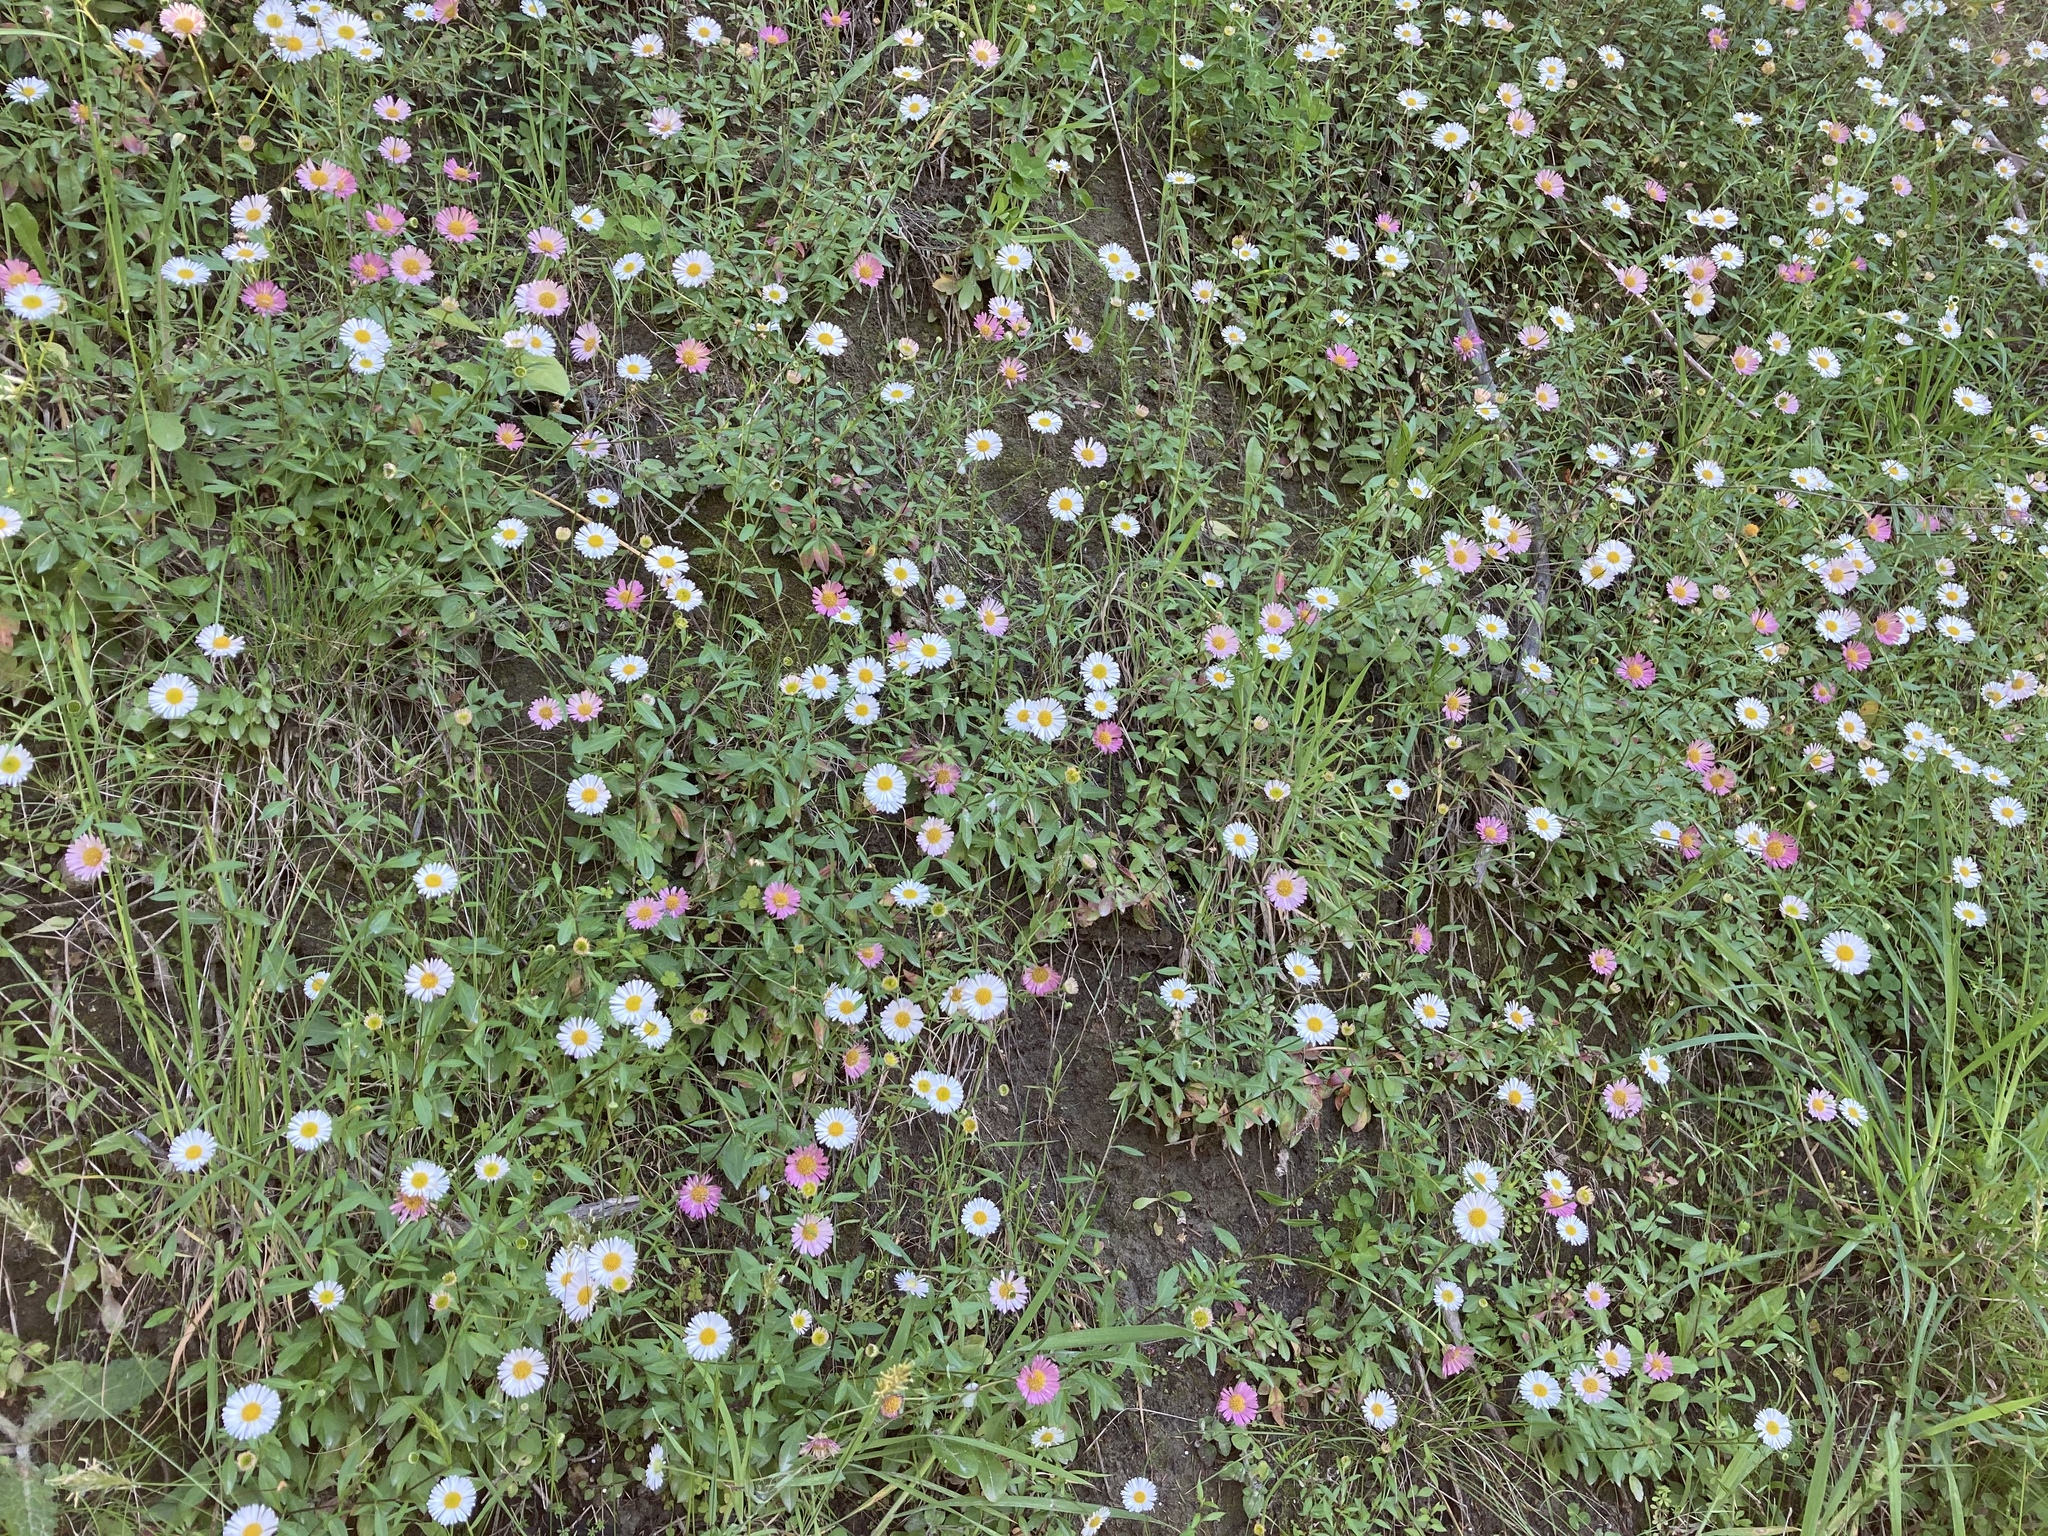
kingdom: Plantae
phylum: Tracheophyta
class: Magnoliopsida
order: Asterales
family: Asteraceae
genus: Erigeron
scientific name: Erigeron karvinskianus
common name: Mexican fleabane
